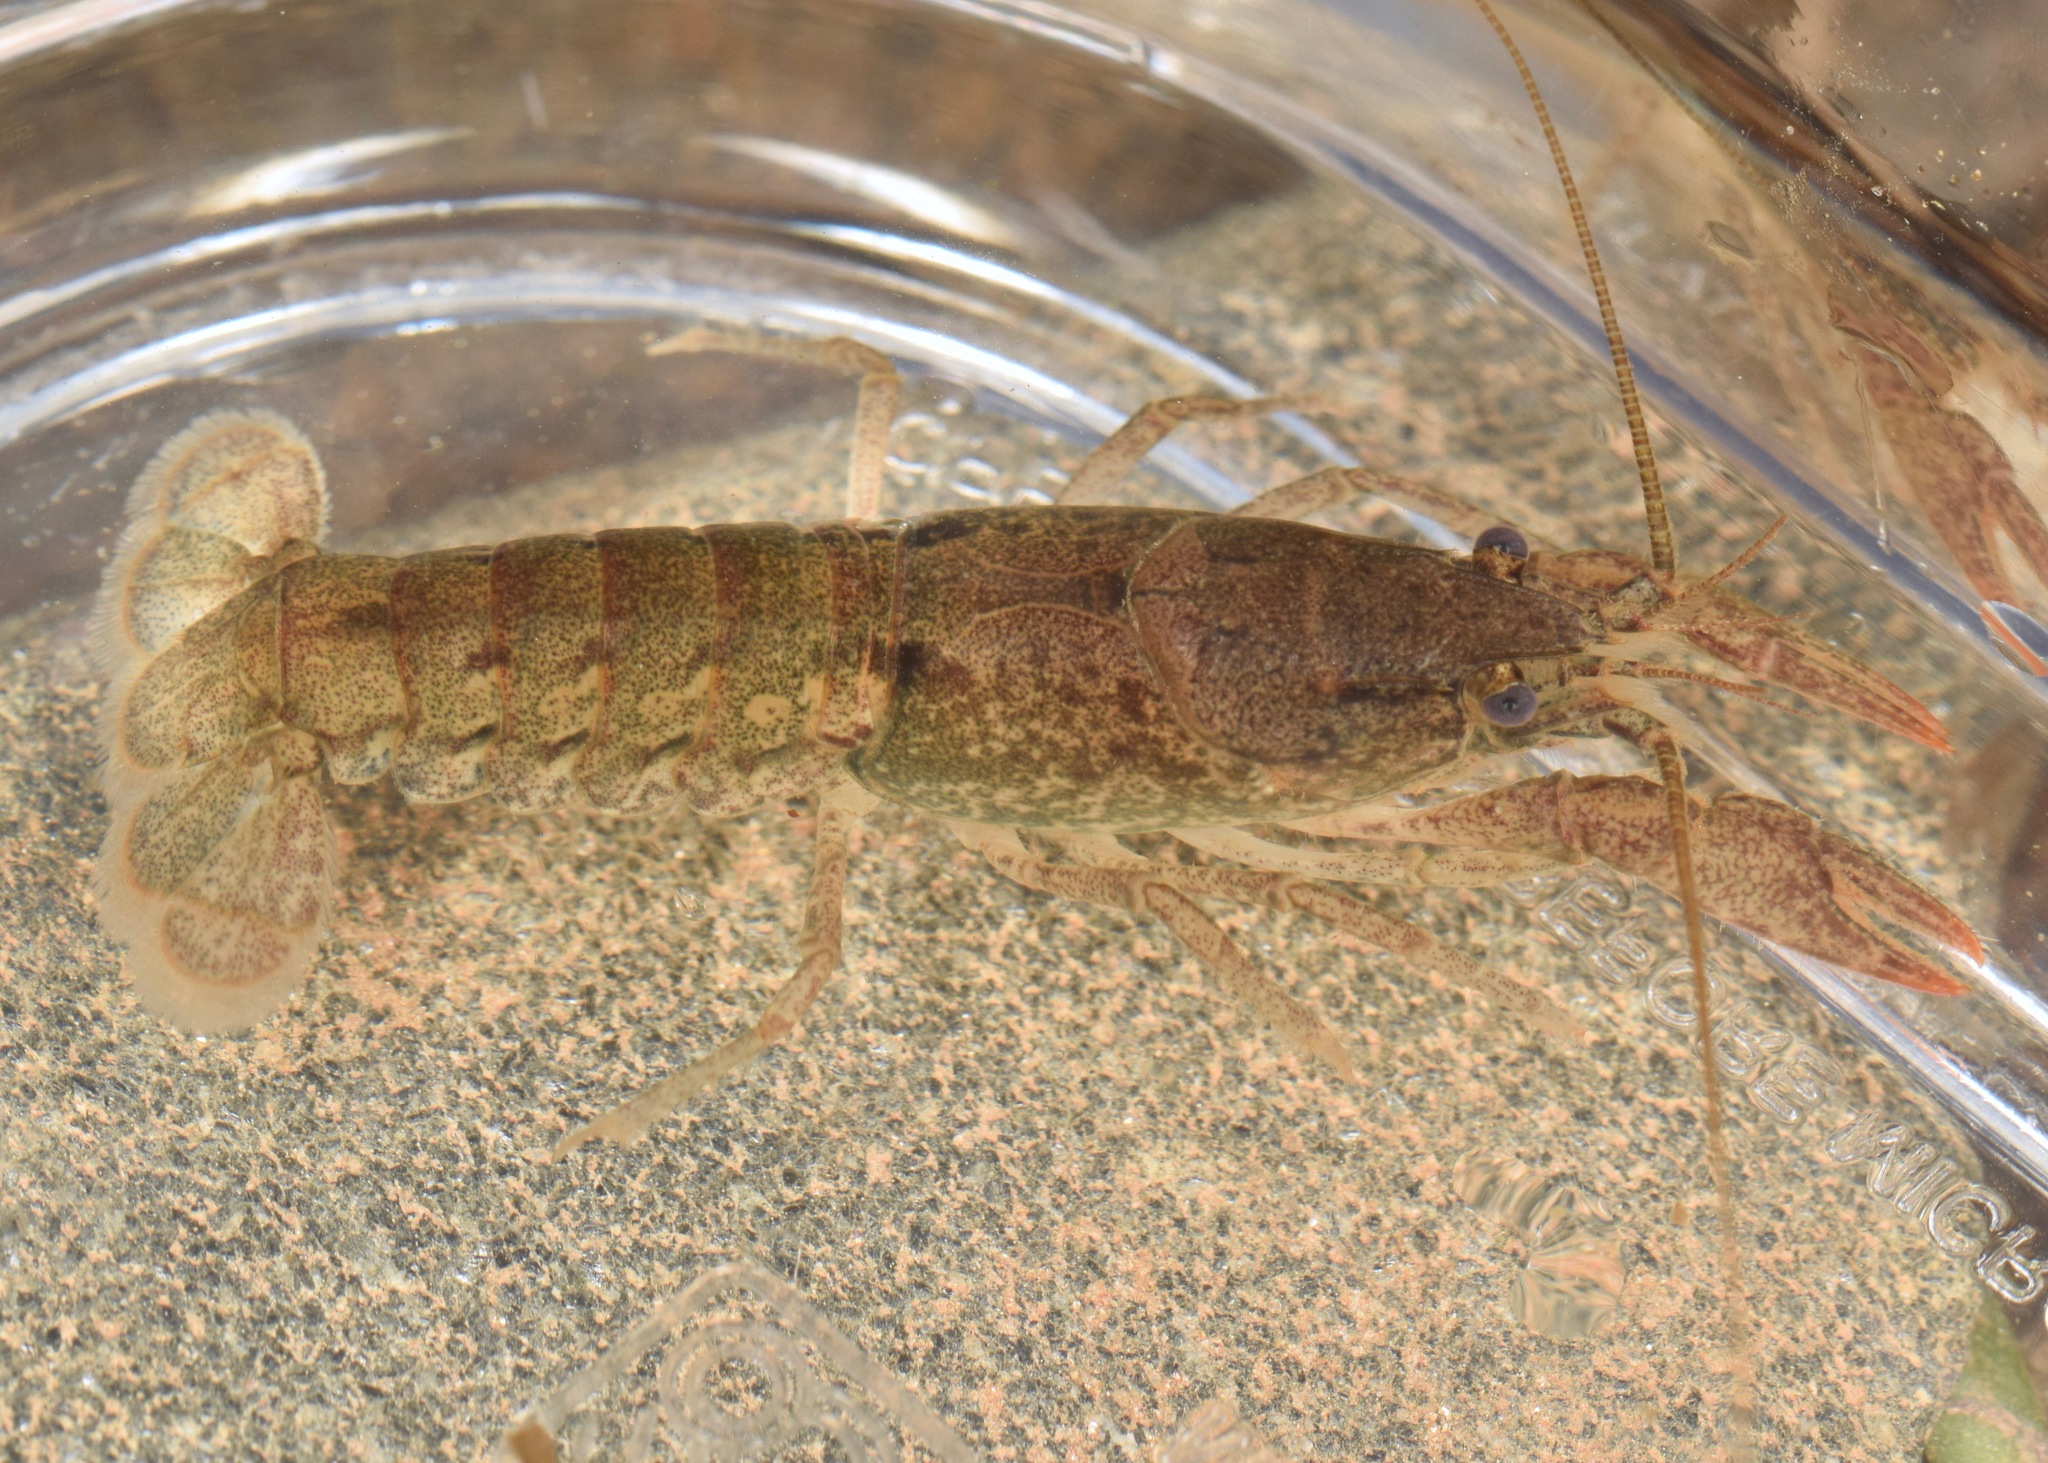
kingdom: Animalia
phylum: Arthropoda
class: Malacostraca
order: Decapoda
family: Cambaridae
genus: Cambarus
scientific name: Cambarus latimanus
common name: Variable crayfish
